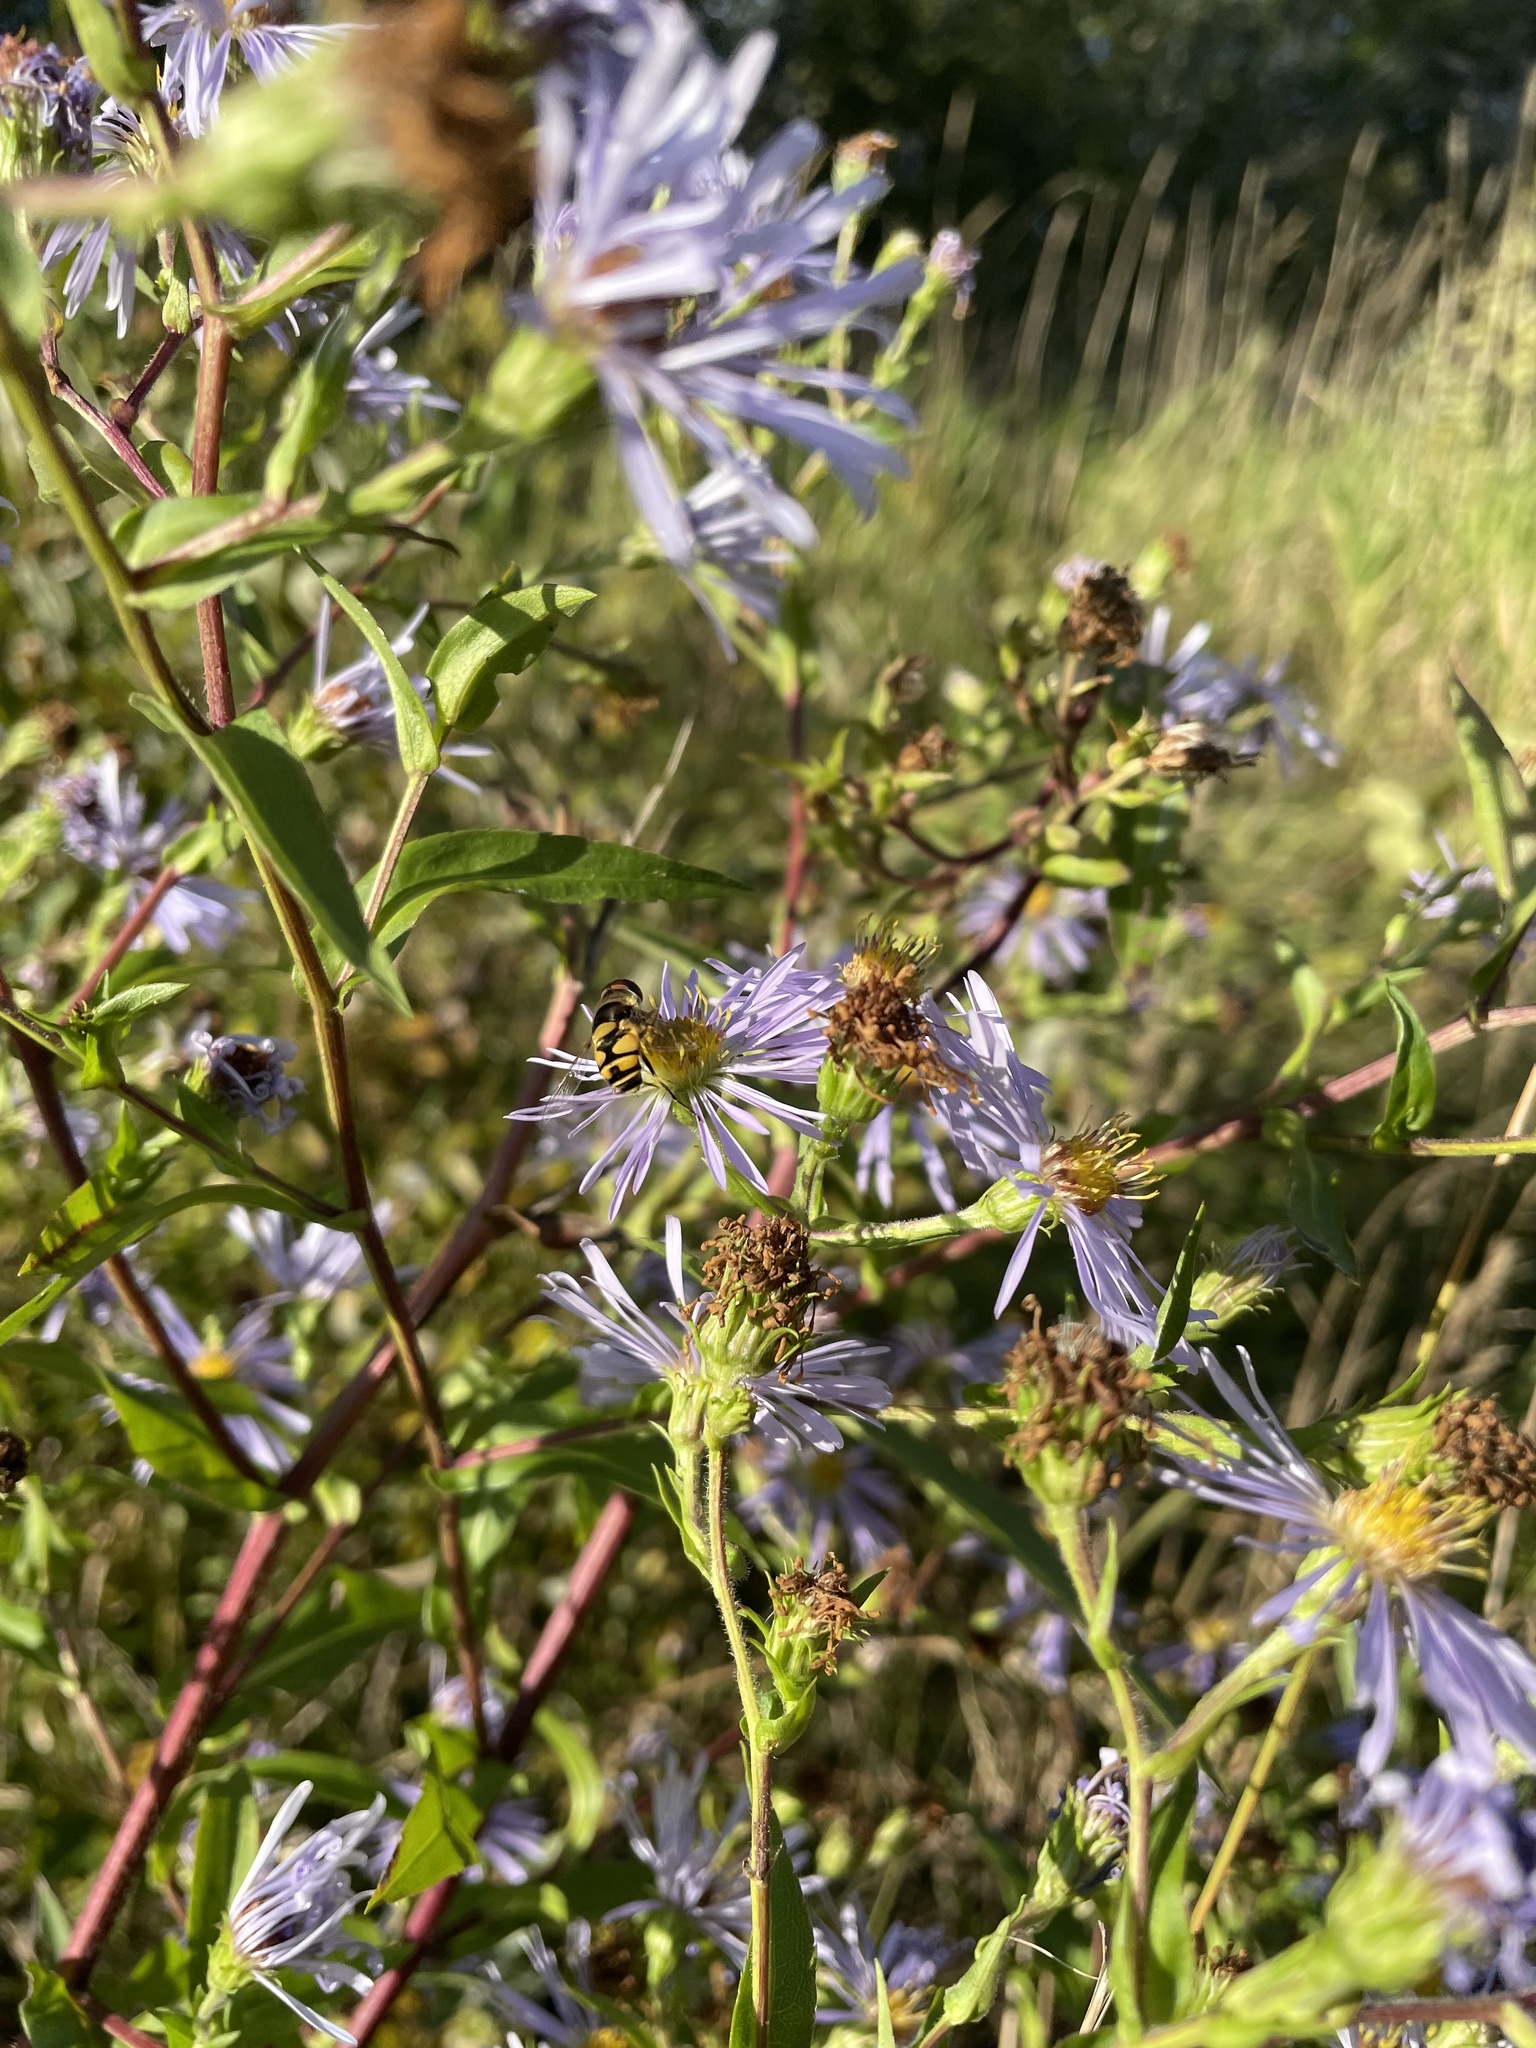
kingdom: Animalia
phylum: Arthropoda
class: Insecta
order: Diptera
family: Syrphidae
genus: Eristalis
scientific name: Eristalis transversa
